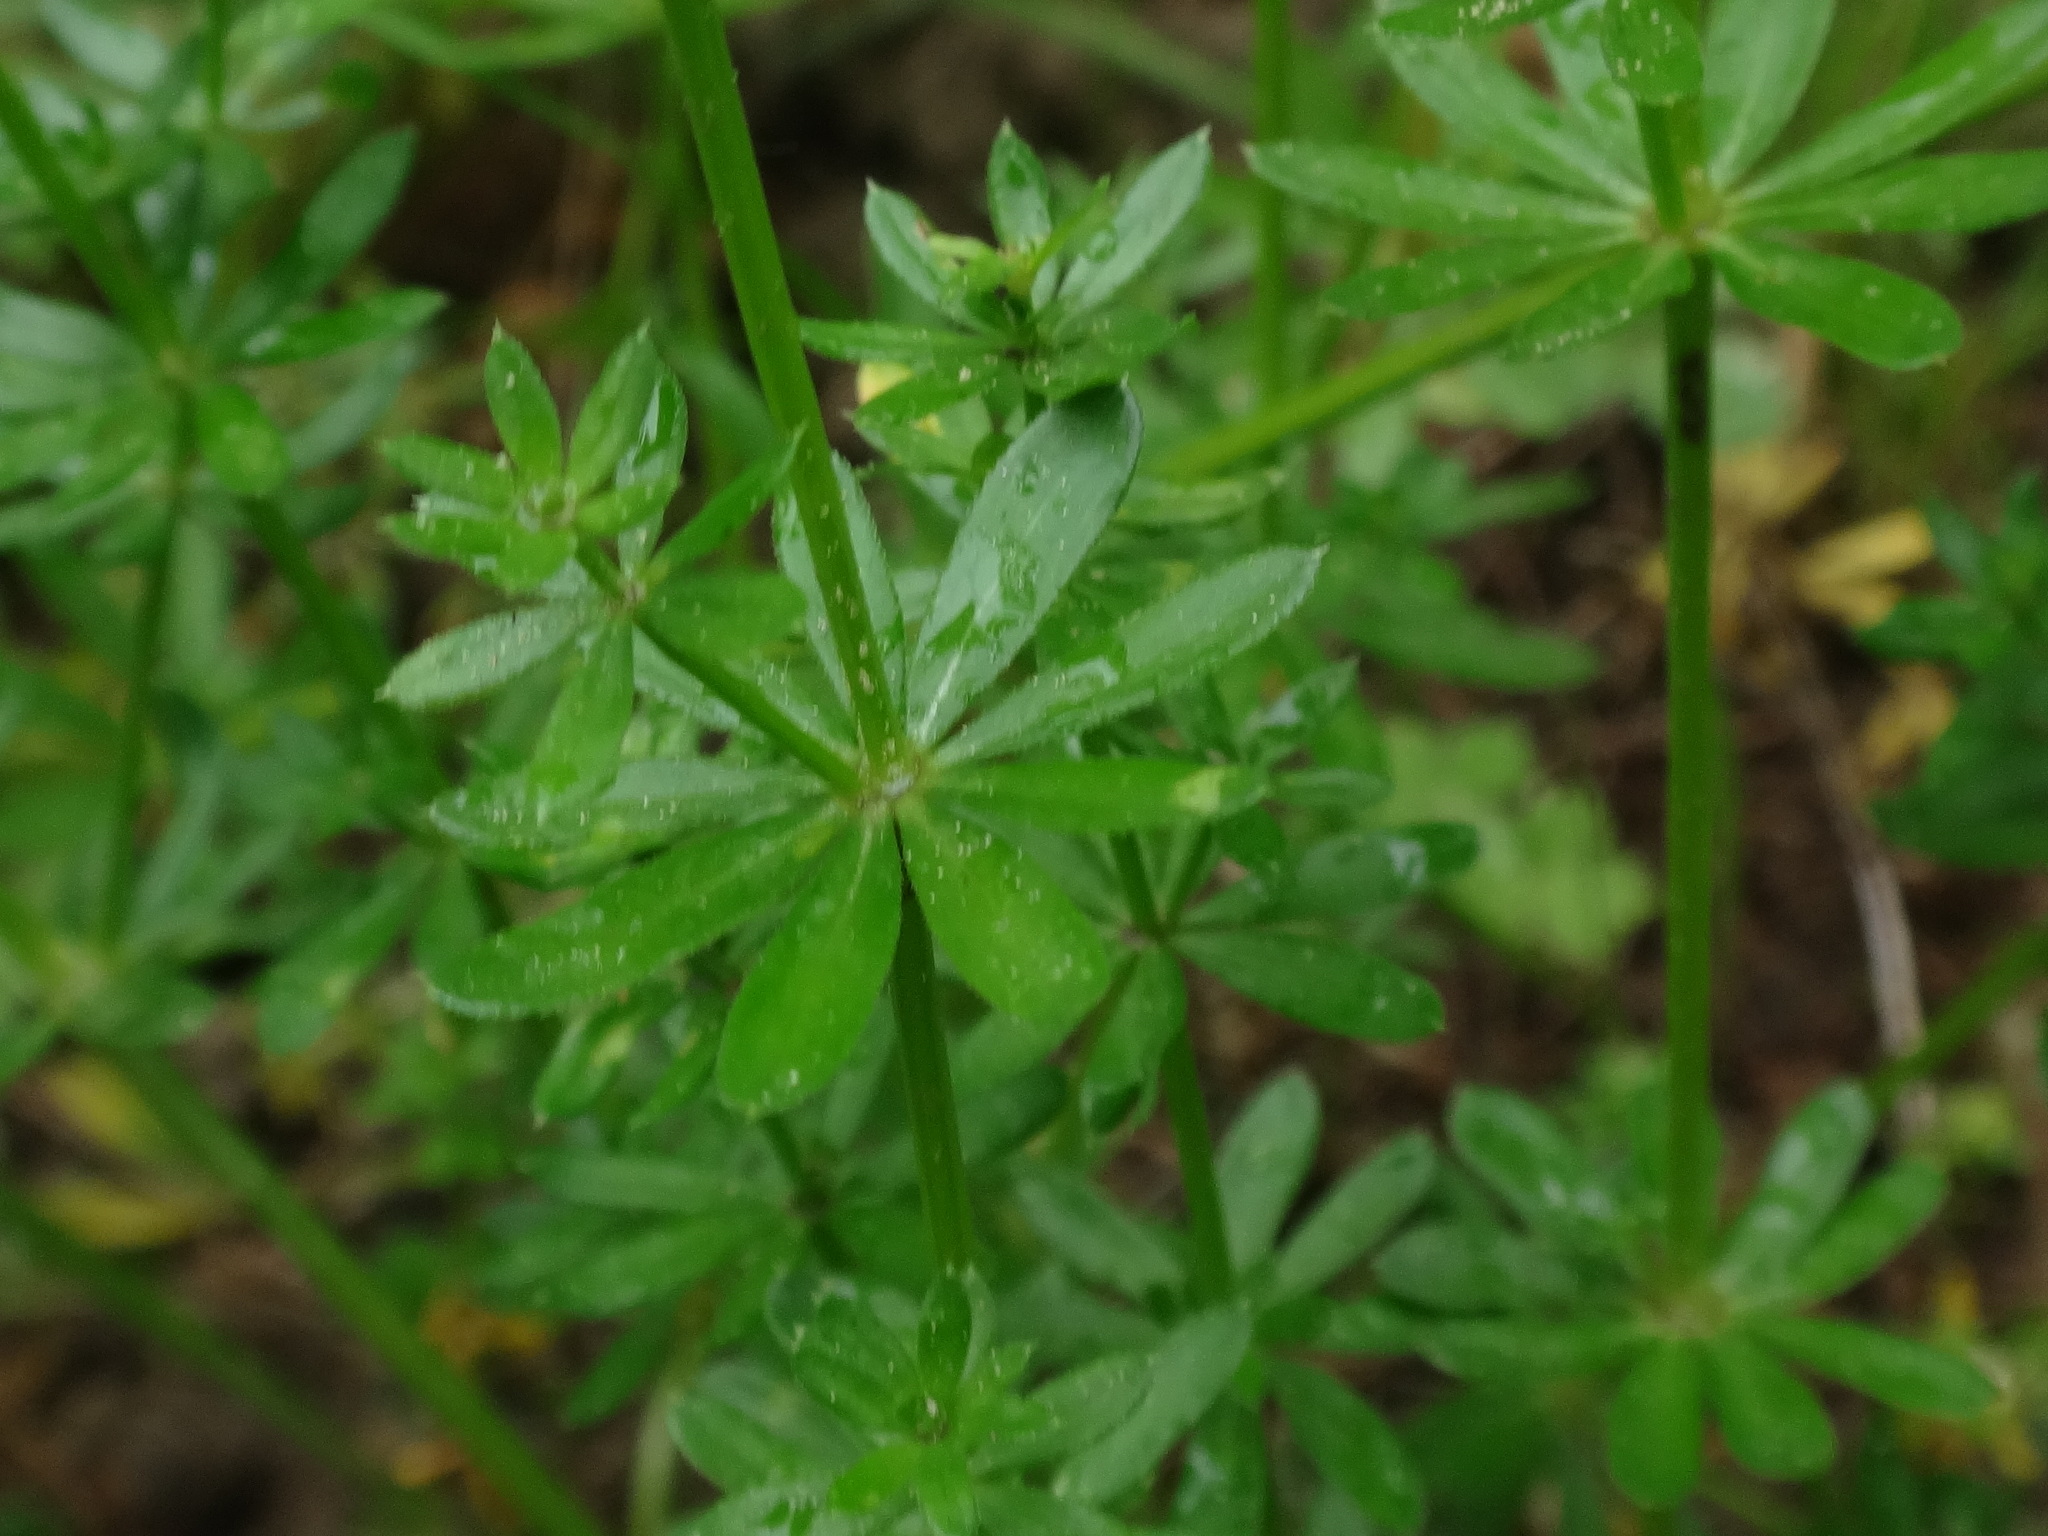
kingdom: Plantae
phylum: Tracheophyta
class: Magnoliopsida
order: Gentianales
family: Rubiaceae
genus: Galium
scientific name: Galium mollugo
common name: Hedge bedstraw
